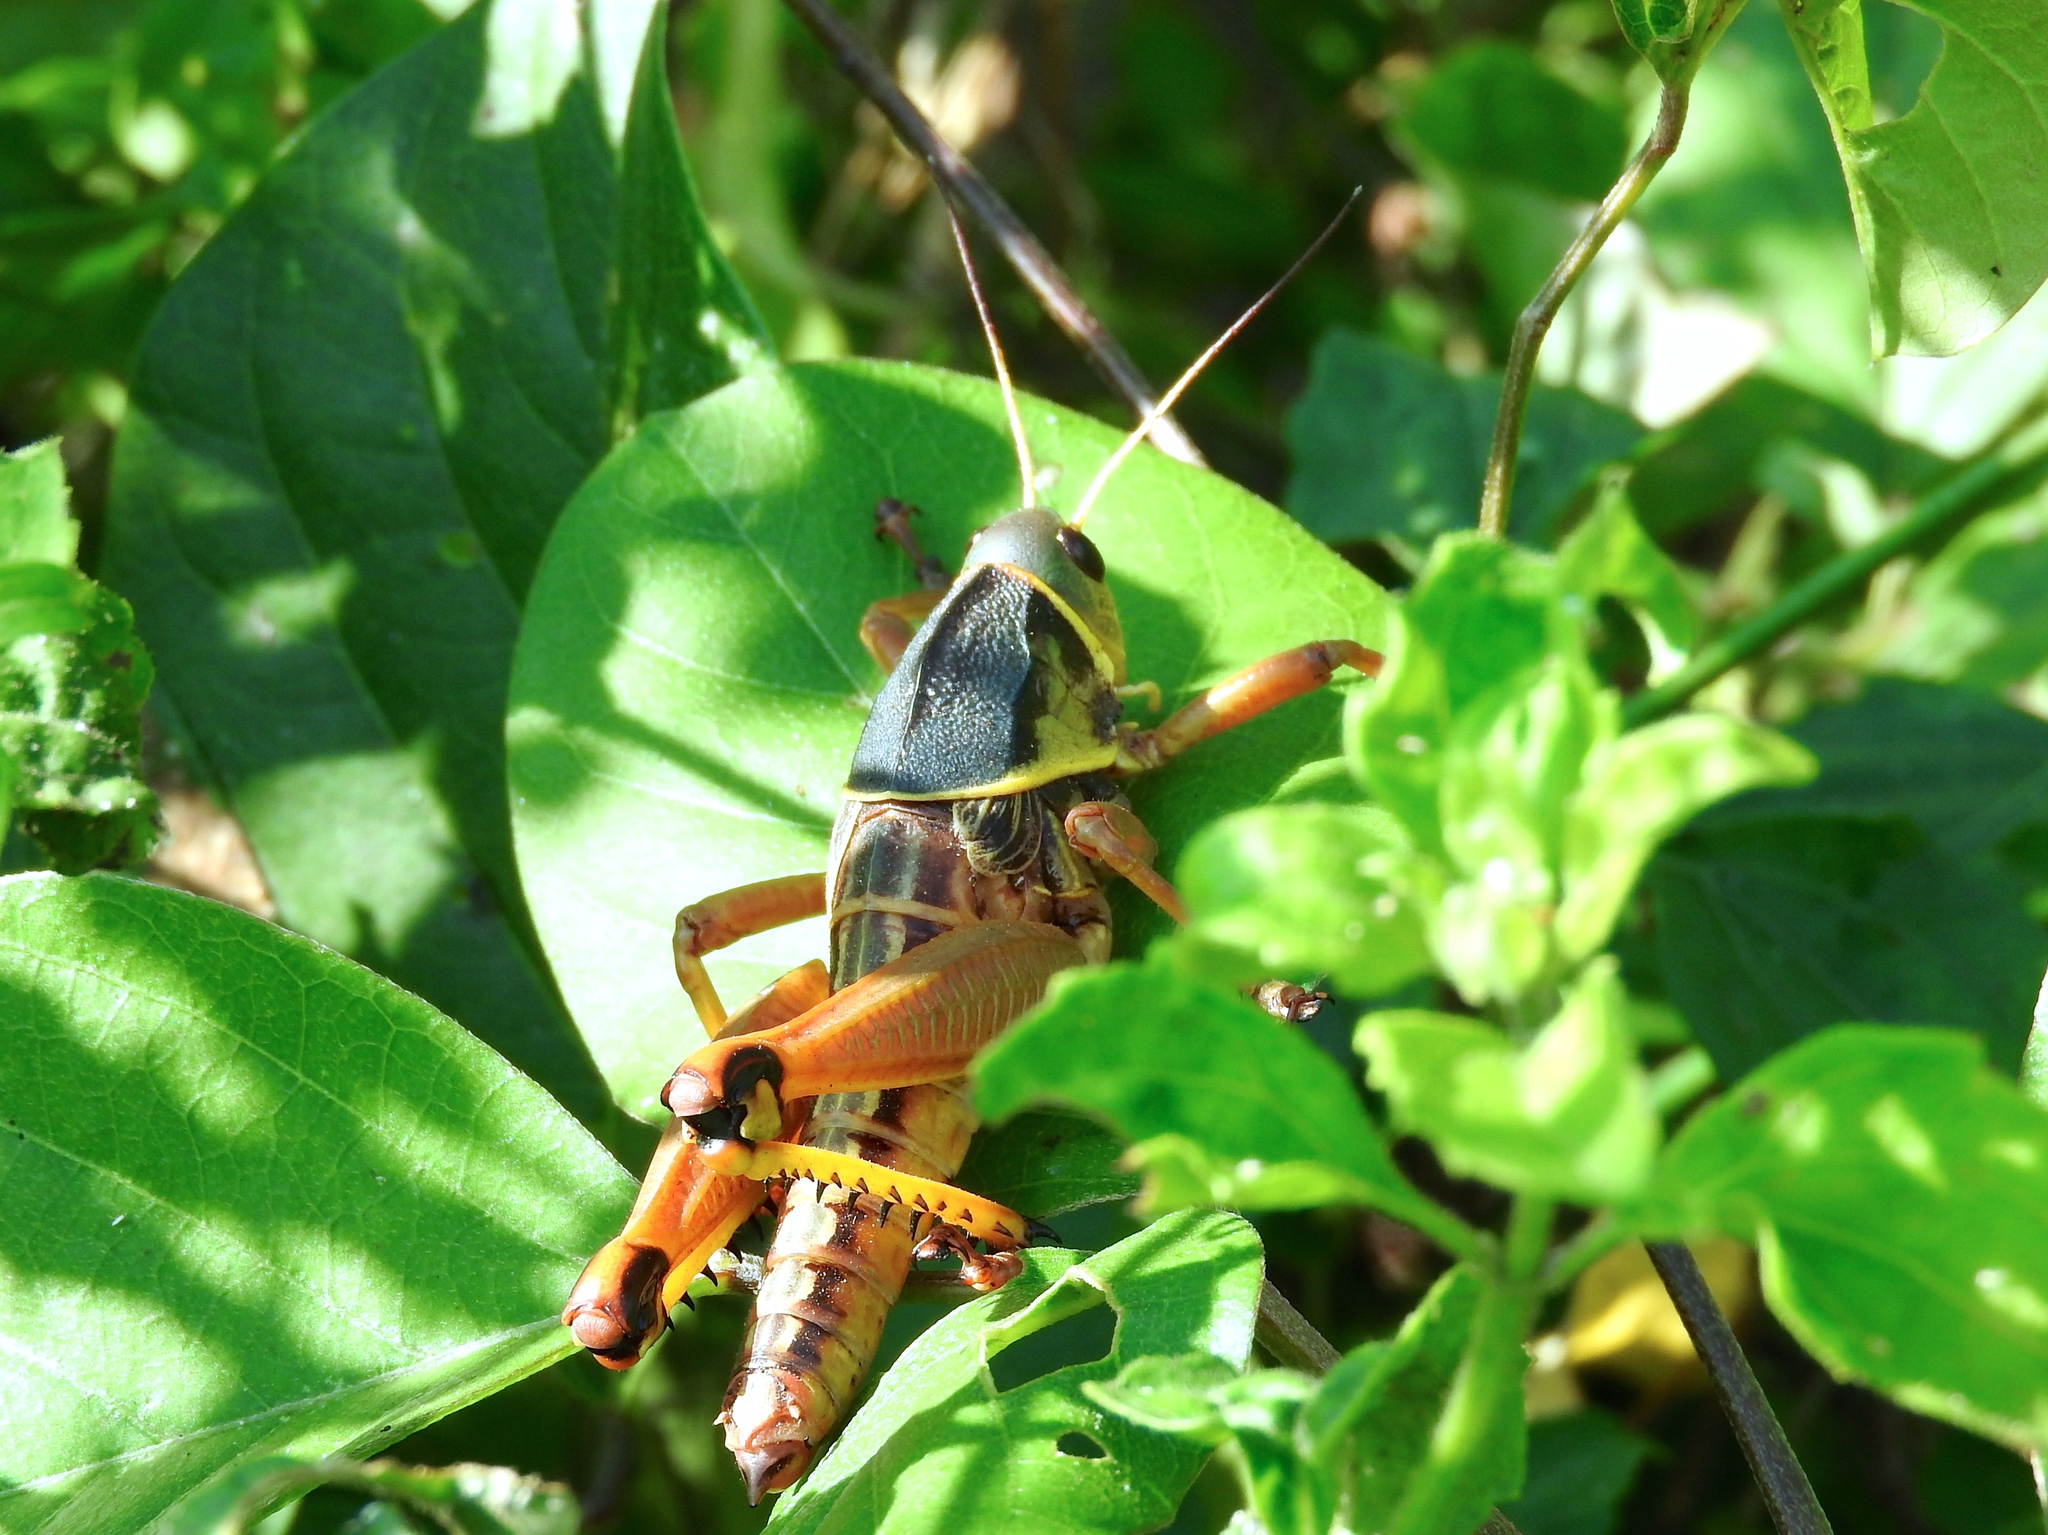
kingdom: Animalia
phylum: Arthropoda
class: Insecta
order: Orthoptera
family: Romaleidae
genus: Brachystola
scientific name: Brachystola behrensii
